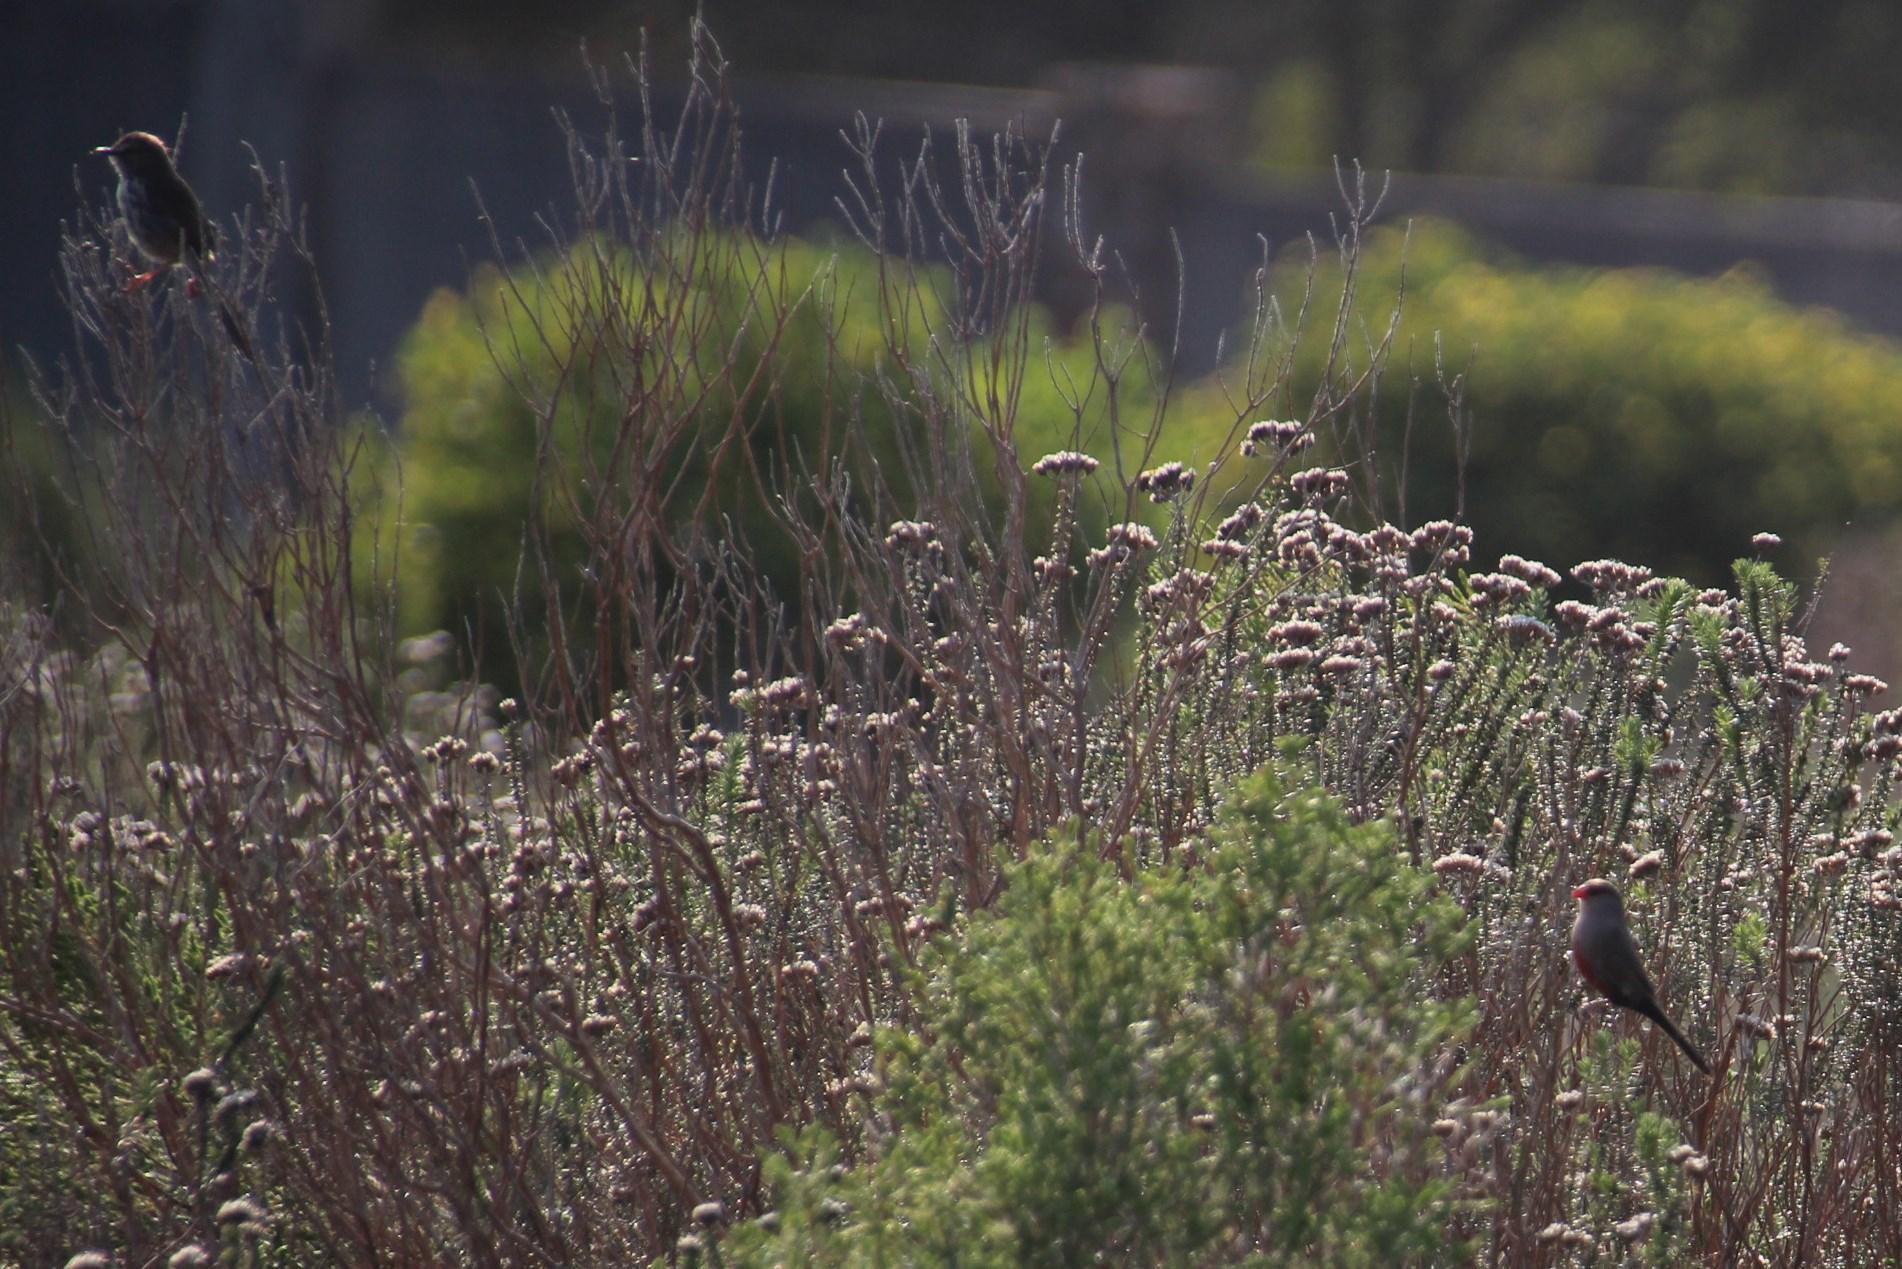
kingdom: Animalia
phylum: Chordata
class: Aves
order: Passeriformes
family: Estrildidae
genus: Estrilda
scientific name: Estrilda astrild
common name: Common waxbill
